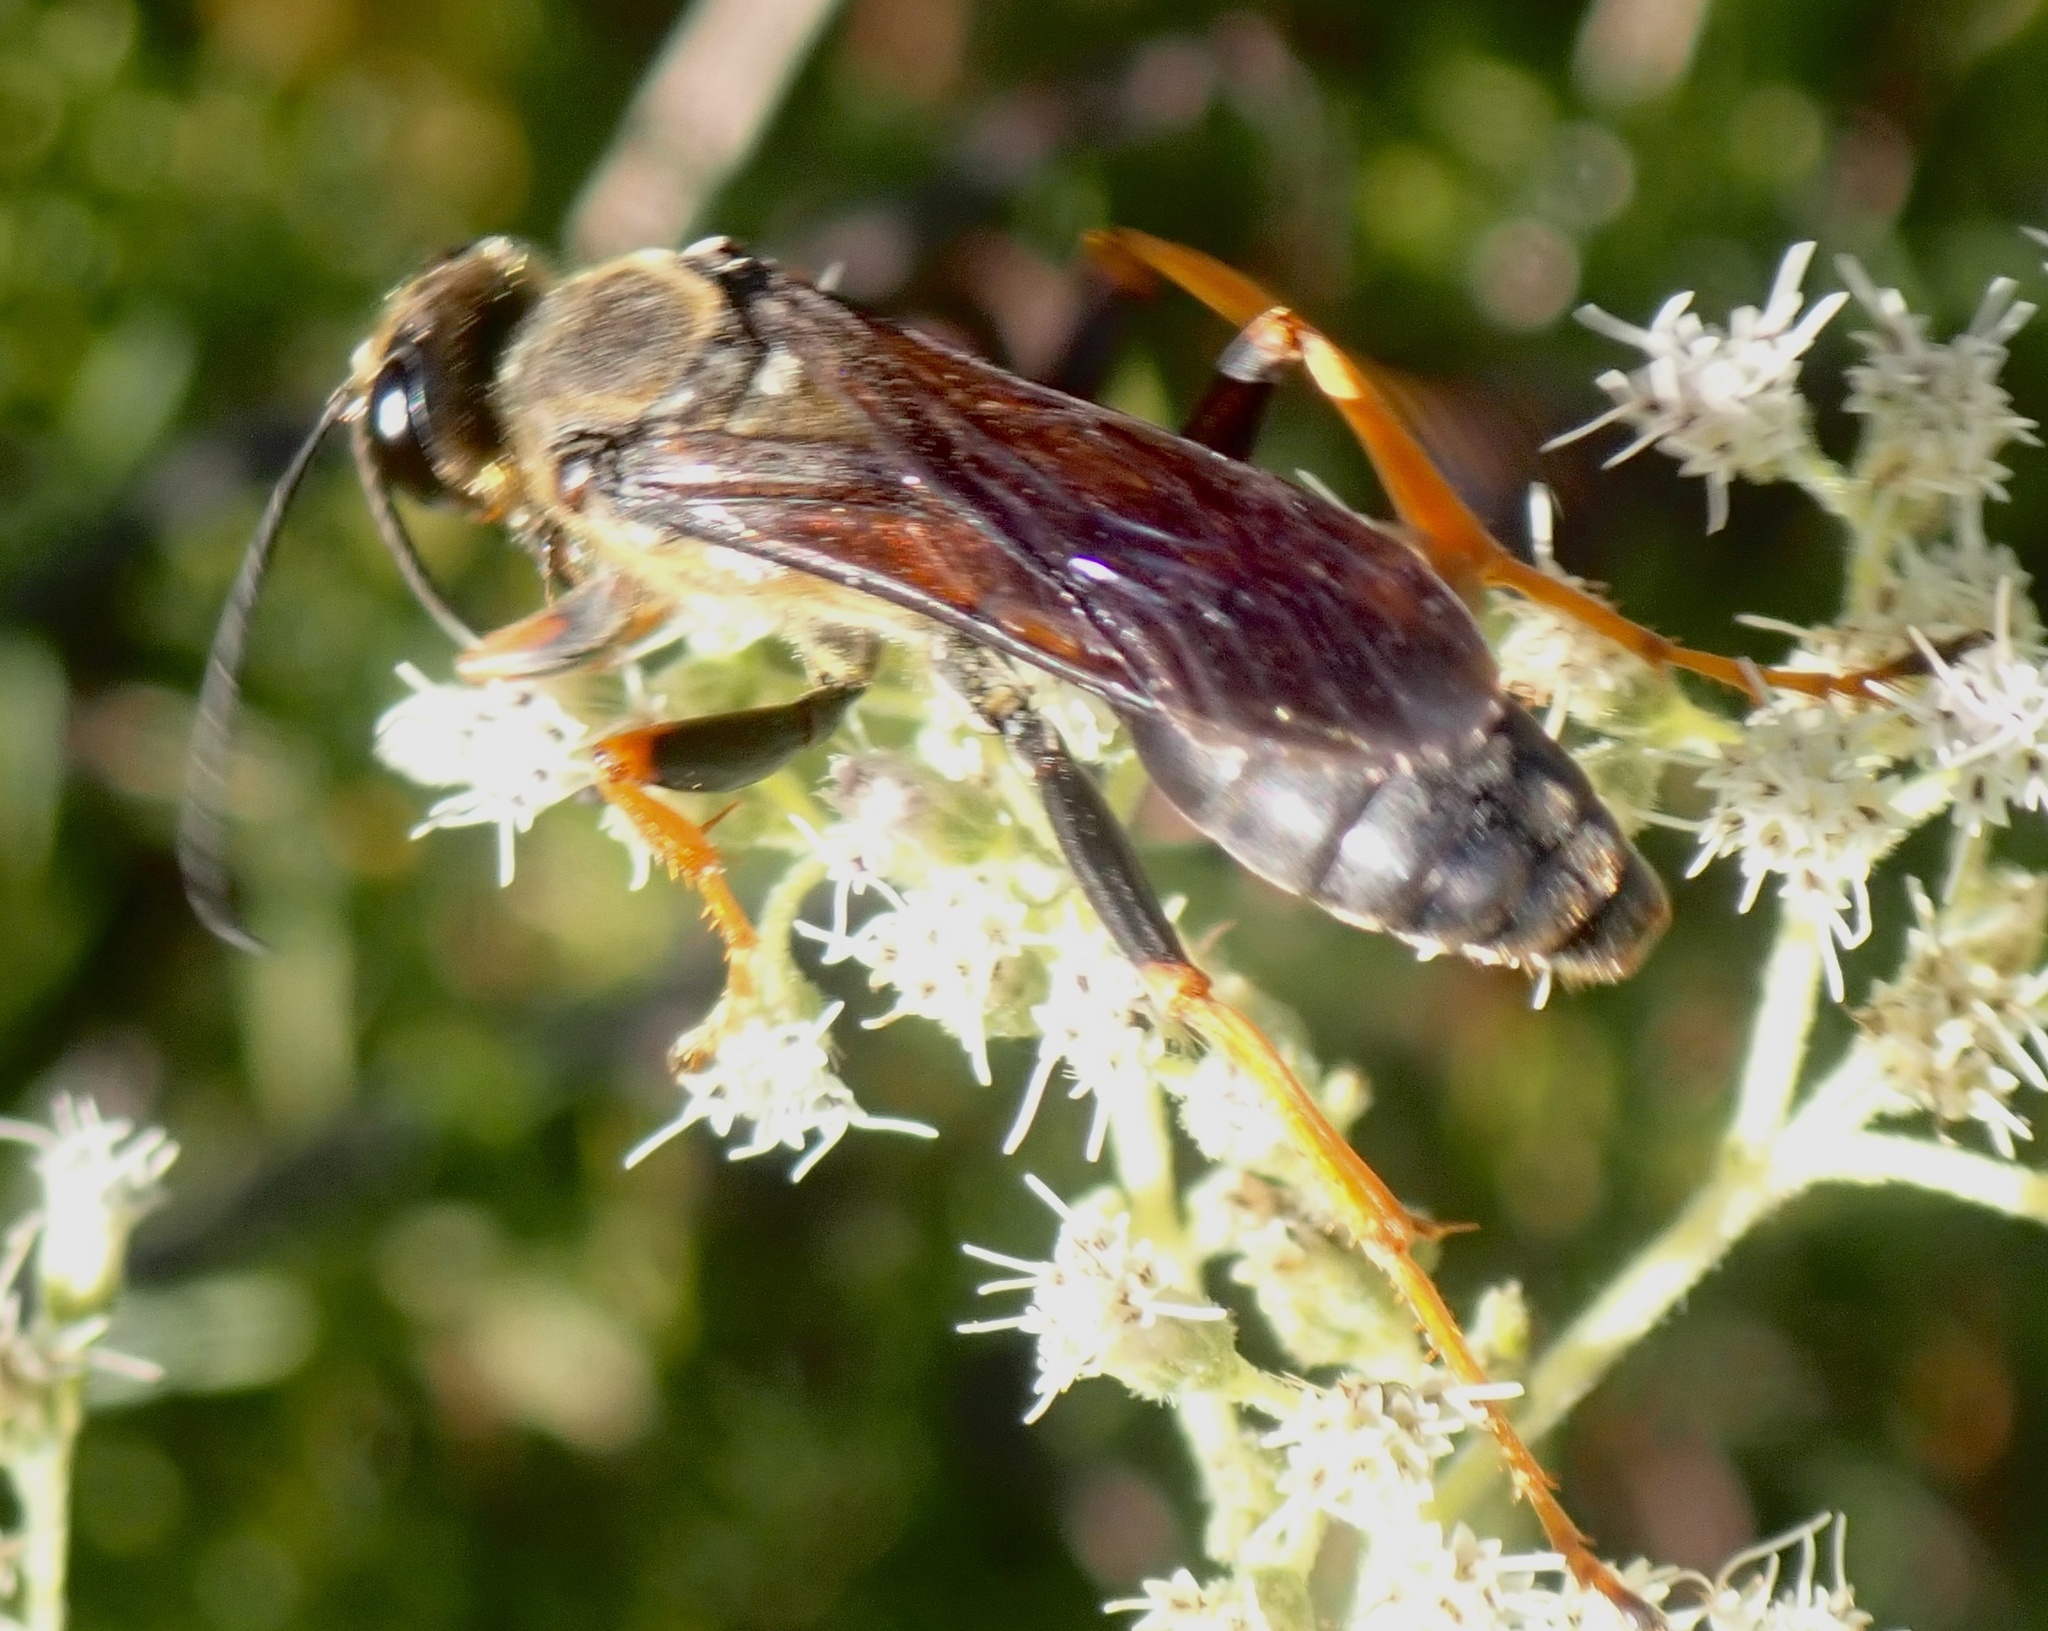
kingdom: Animalia
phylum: Arthropoda
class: Insecta
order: Hymenoptera
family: Sphecidae
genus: Sphex
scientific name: Sphex flavovestitus
